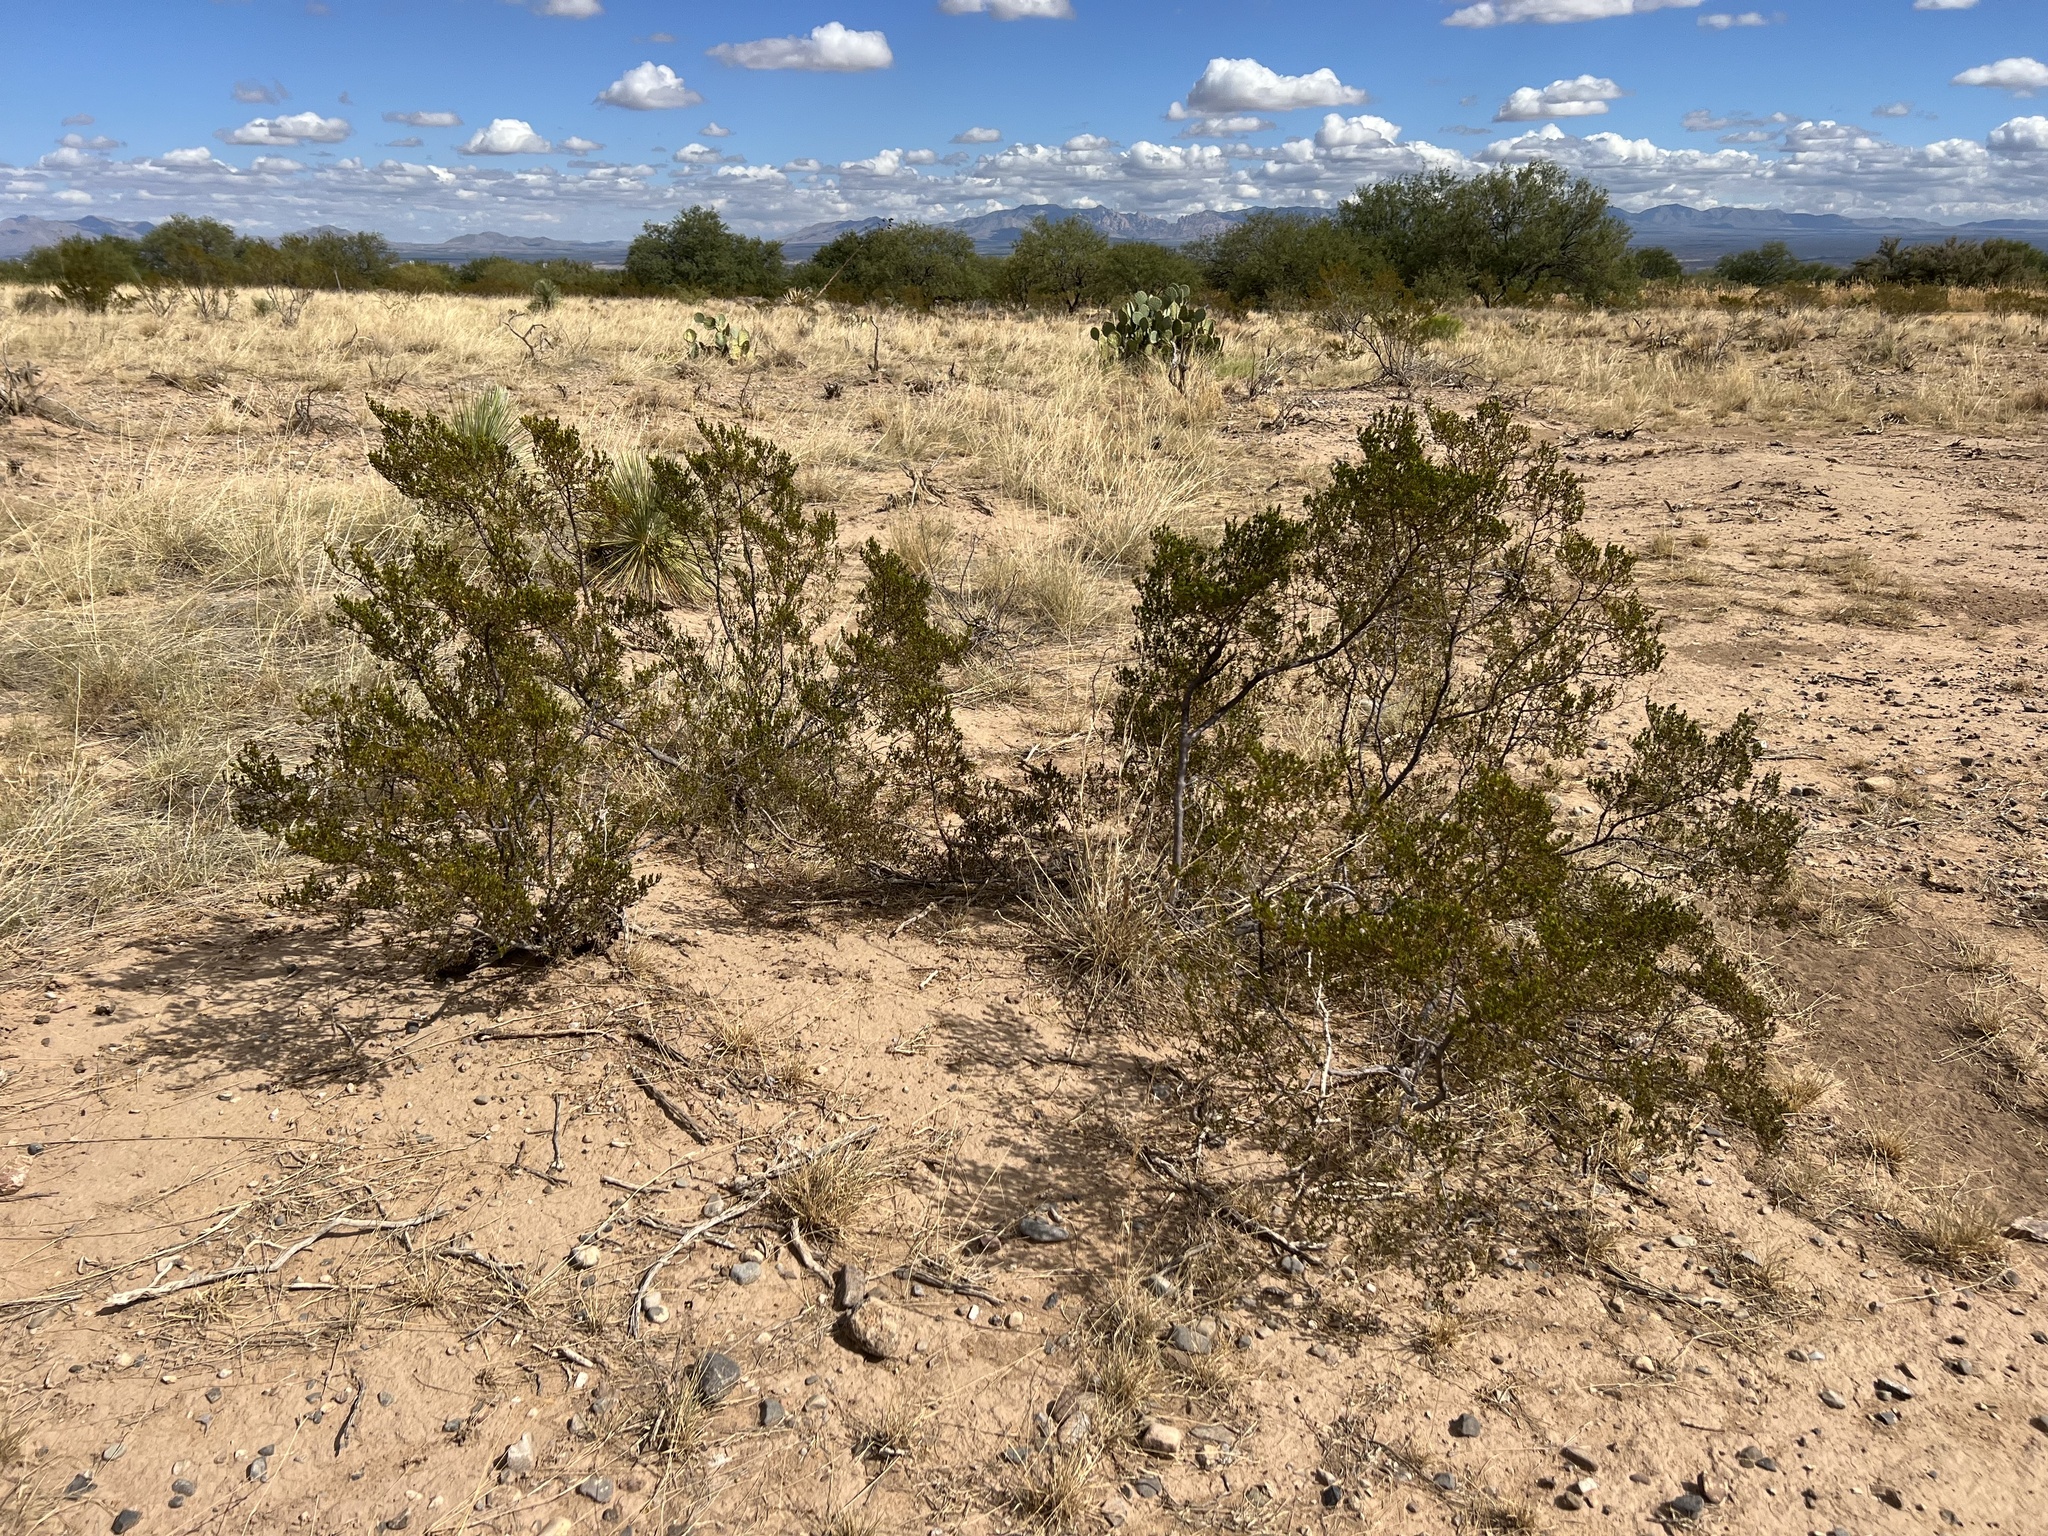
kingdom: Plantae
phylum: Tracheophyta
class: Magnoliopsida
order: Zygophyllales
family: Zygophyllaceae
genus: Larrea
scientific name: Larrea tridentata
